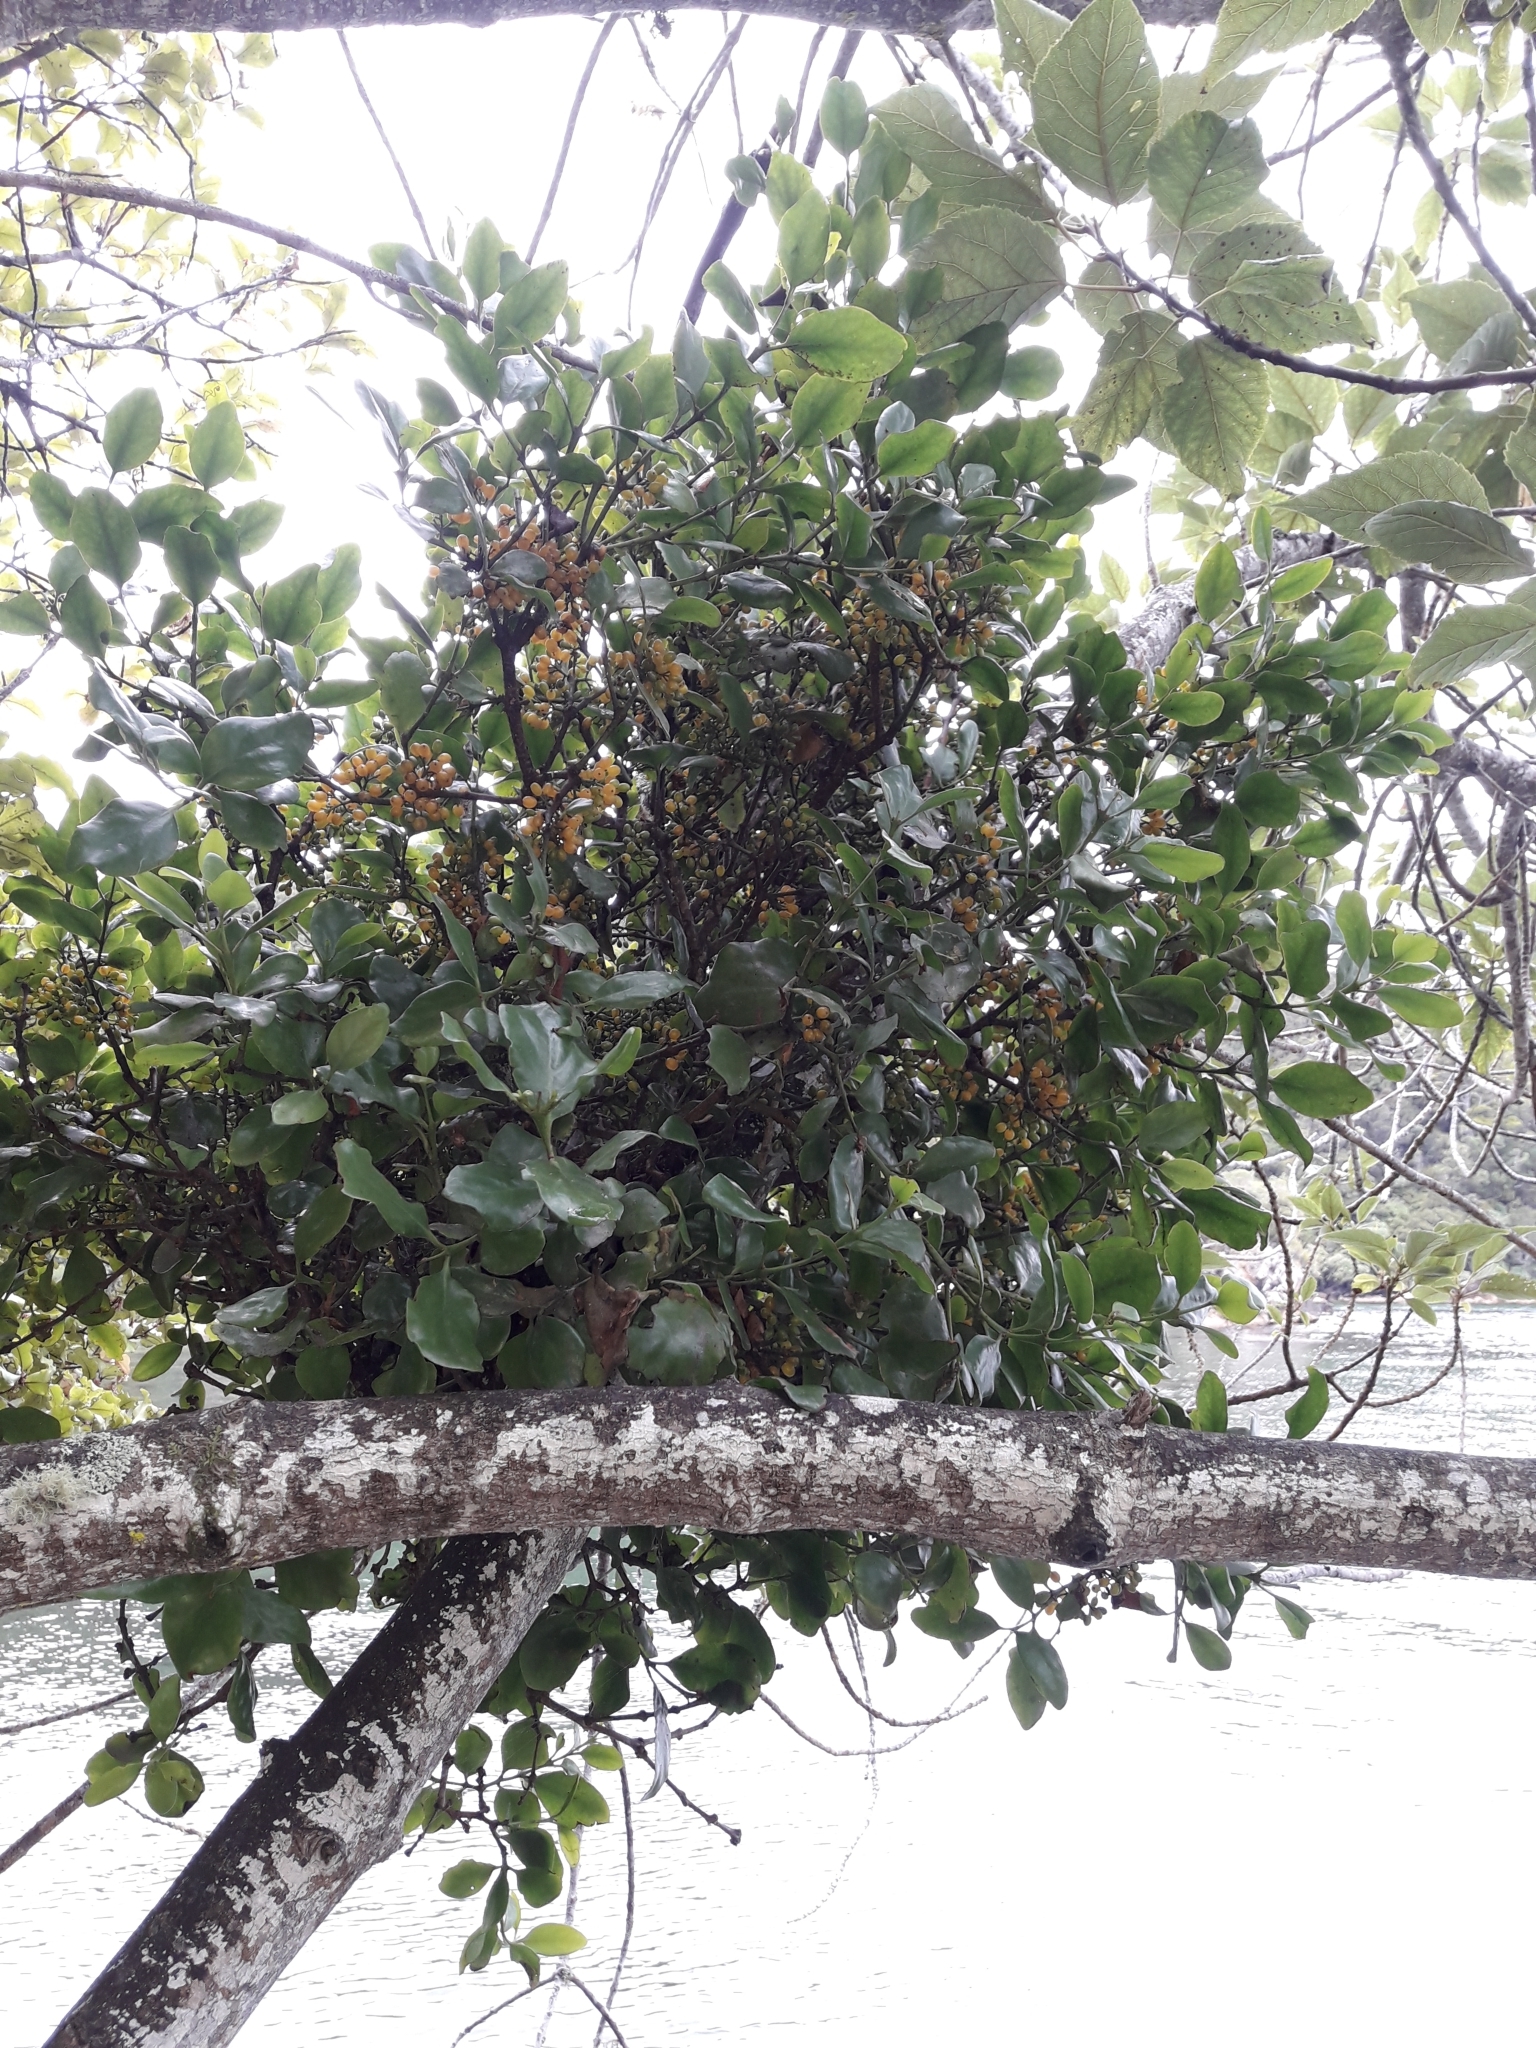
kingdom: Plantae
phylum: Tracheophyta
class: Magnoliopsida
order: Santalales
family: Loranthaceae
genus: Ileostylus
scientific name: Ileostylus micranthus
